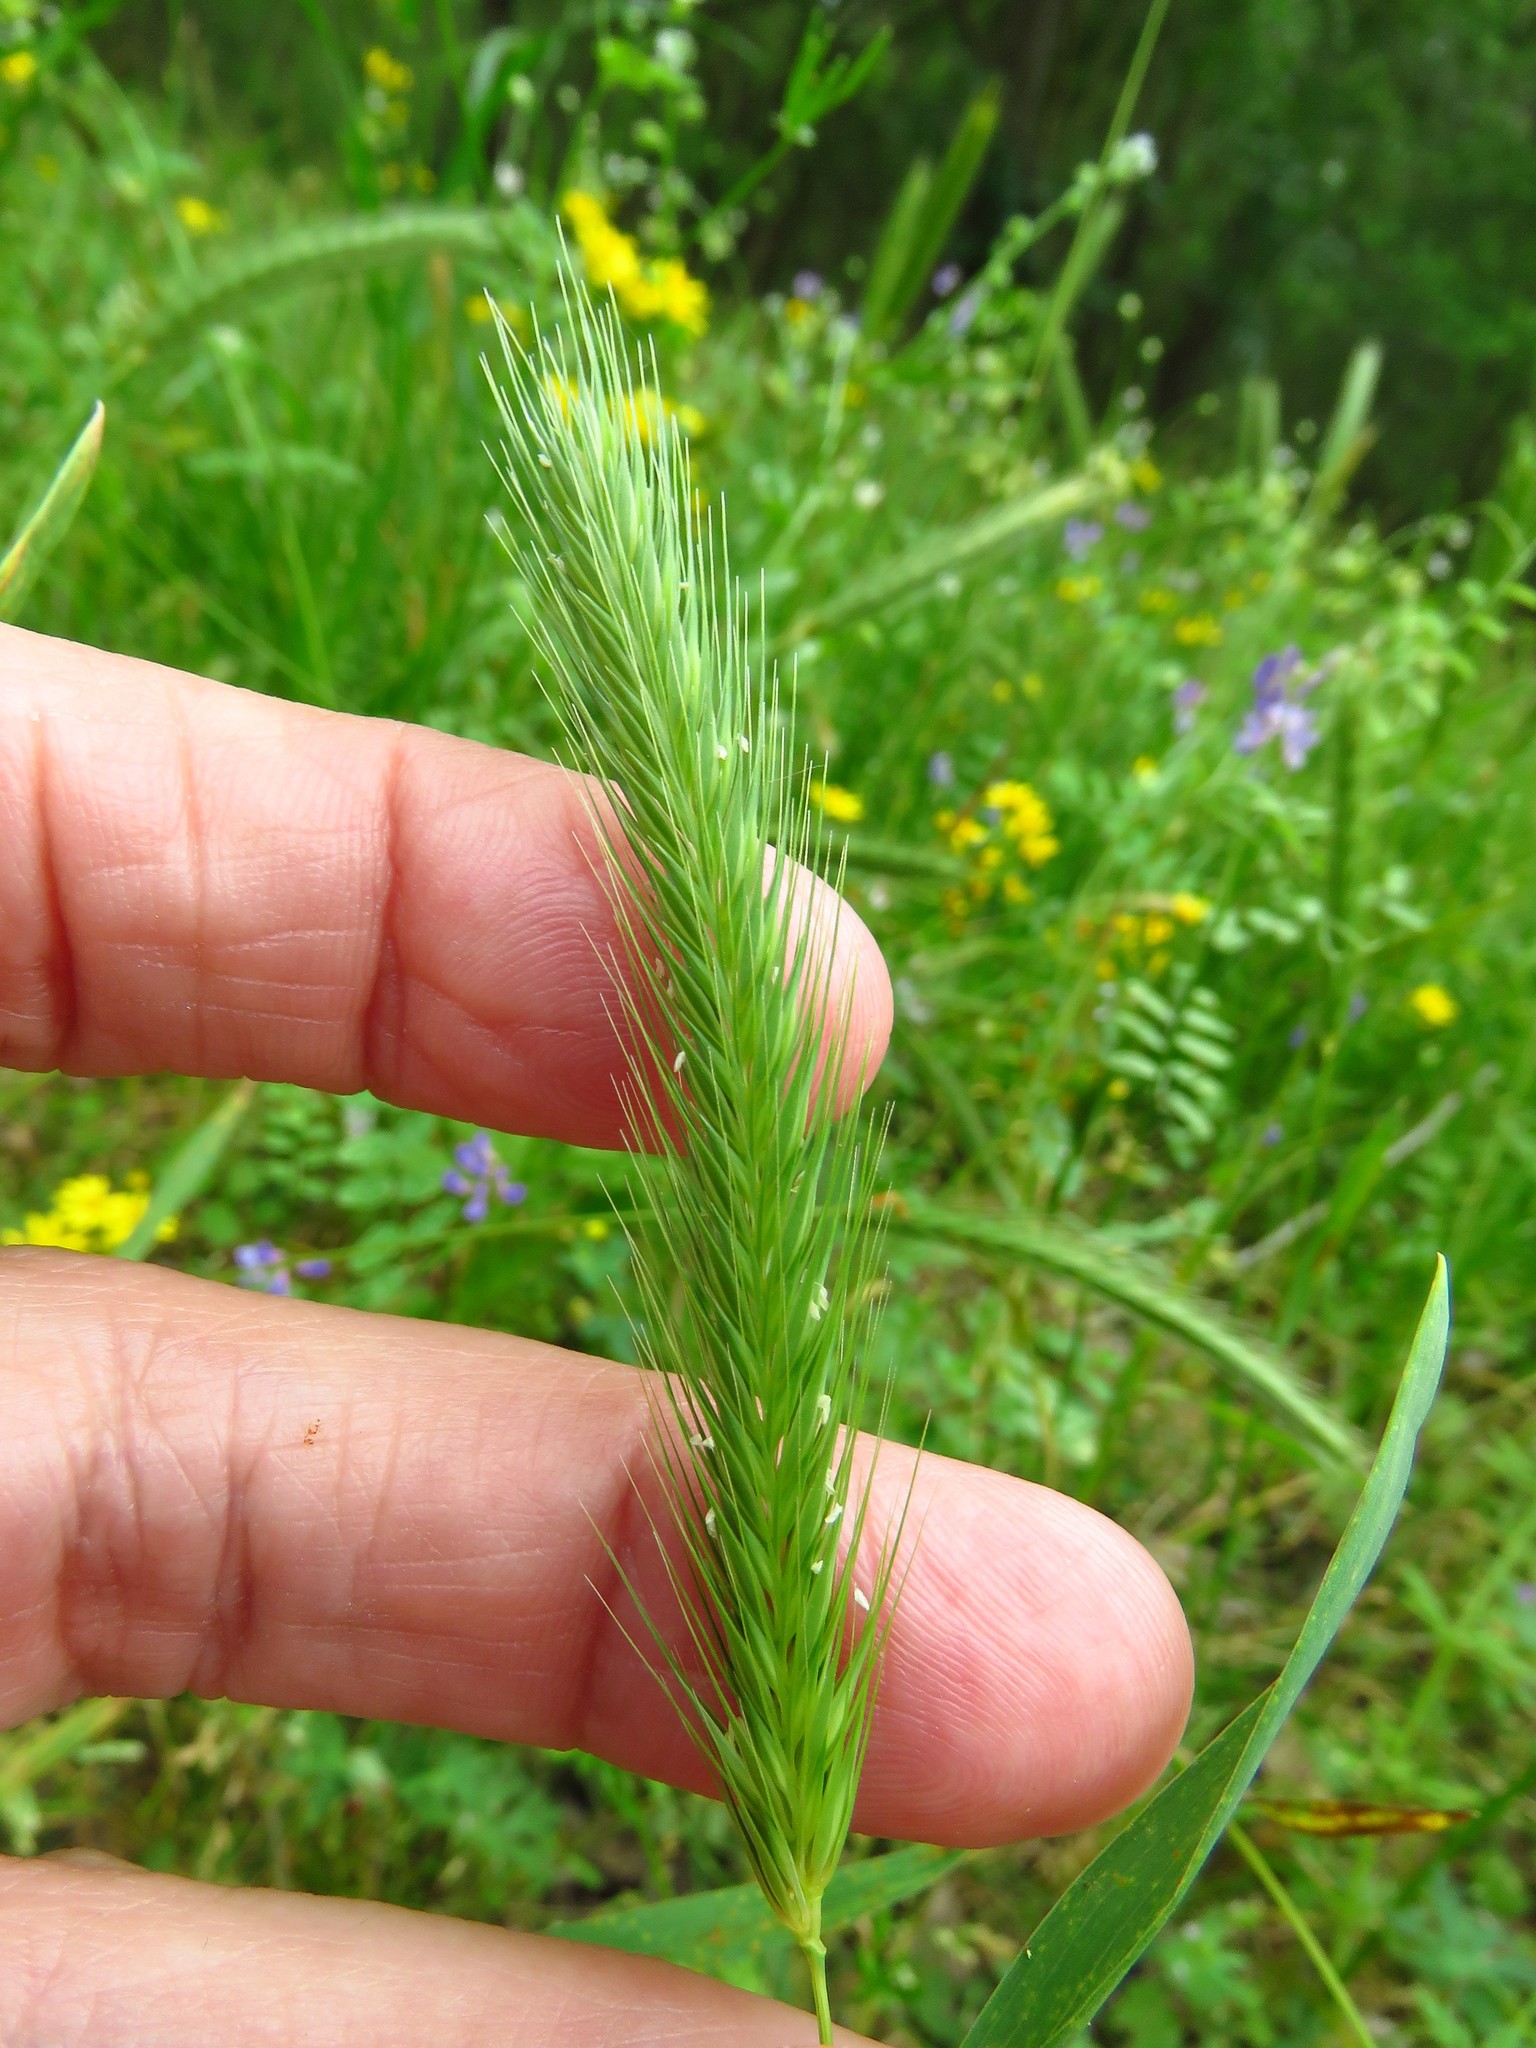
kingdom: Plantae
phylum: Tracheophyta
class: Liliopsida
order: Poales
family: Poaceae
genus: Hordeum
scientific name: Hordeum pusillum
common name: Little barley
